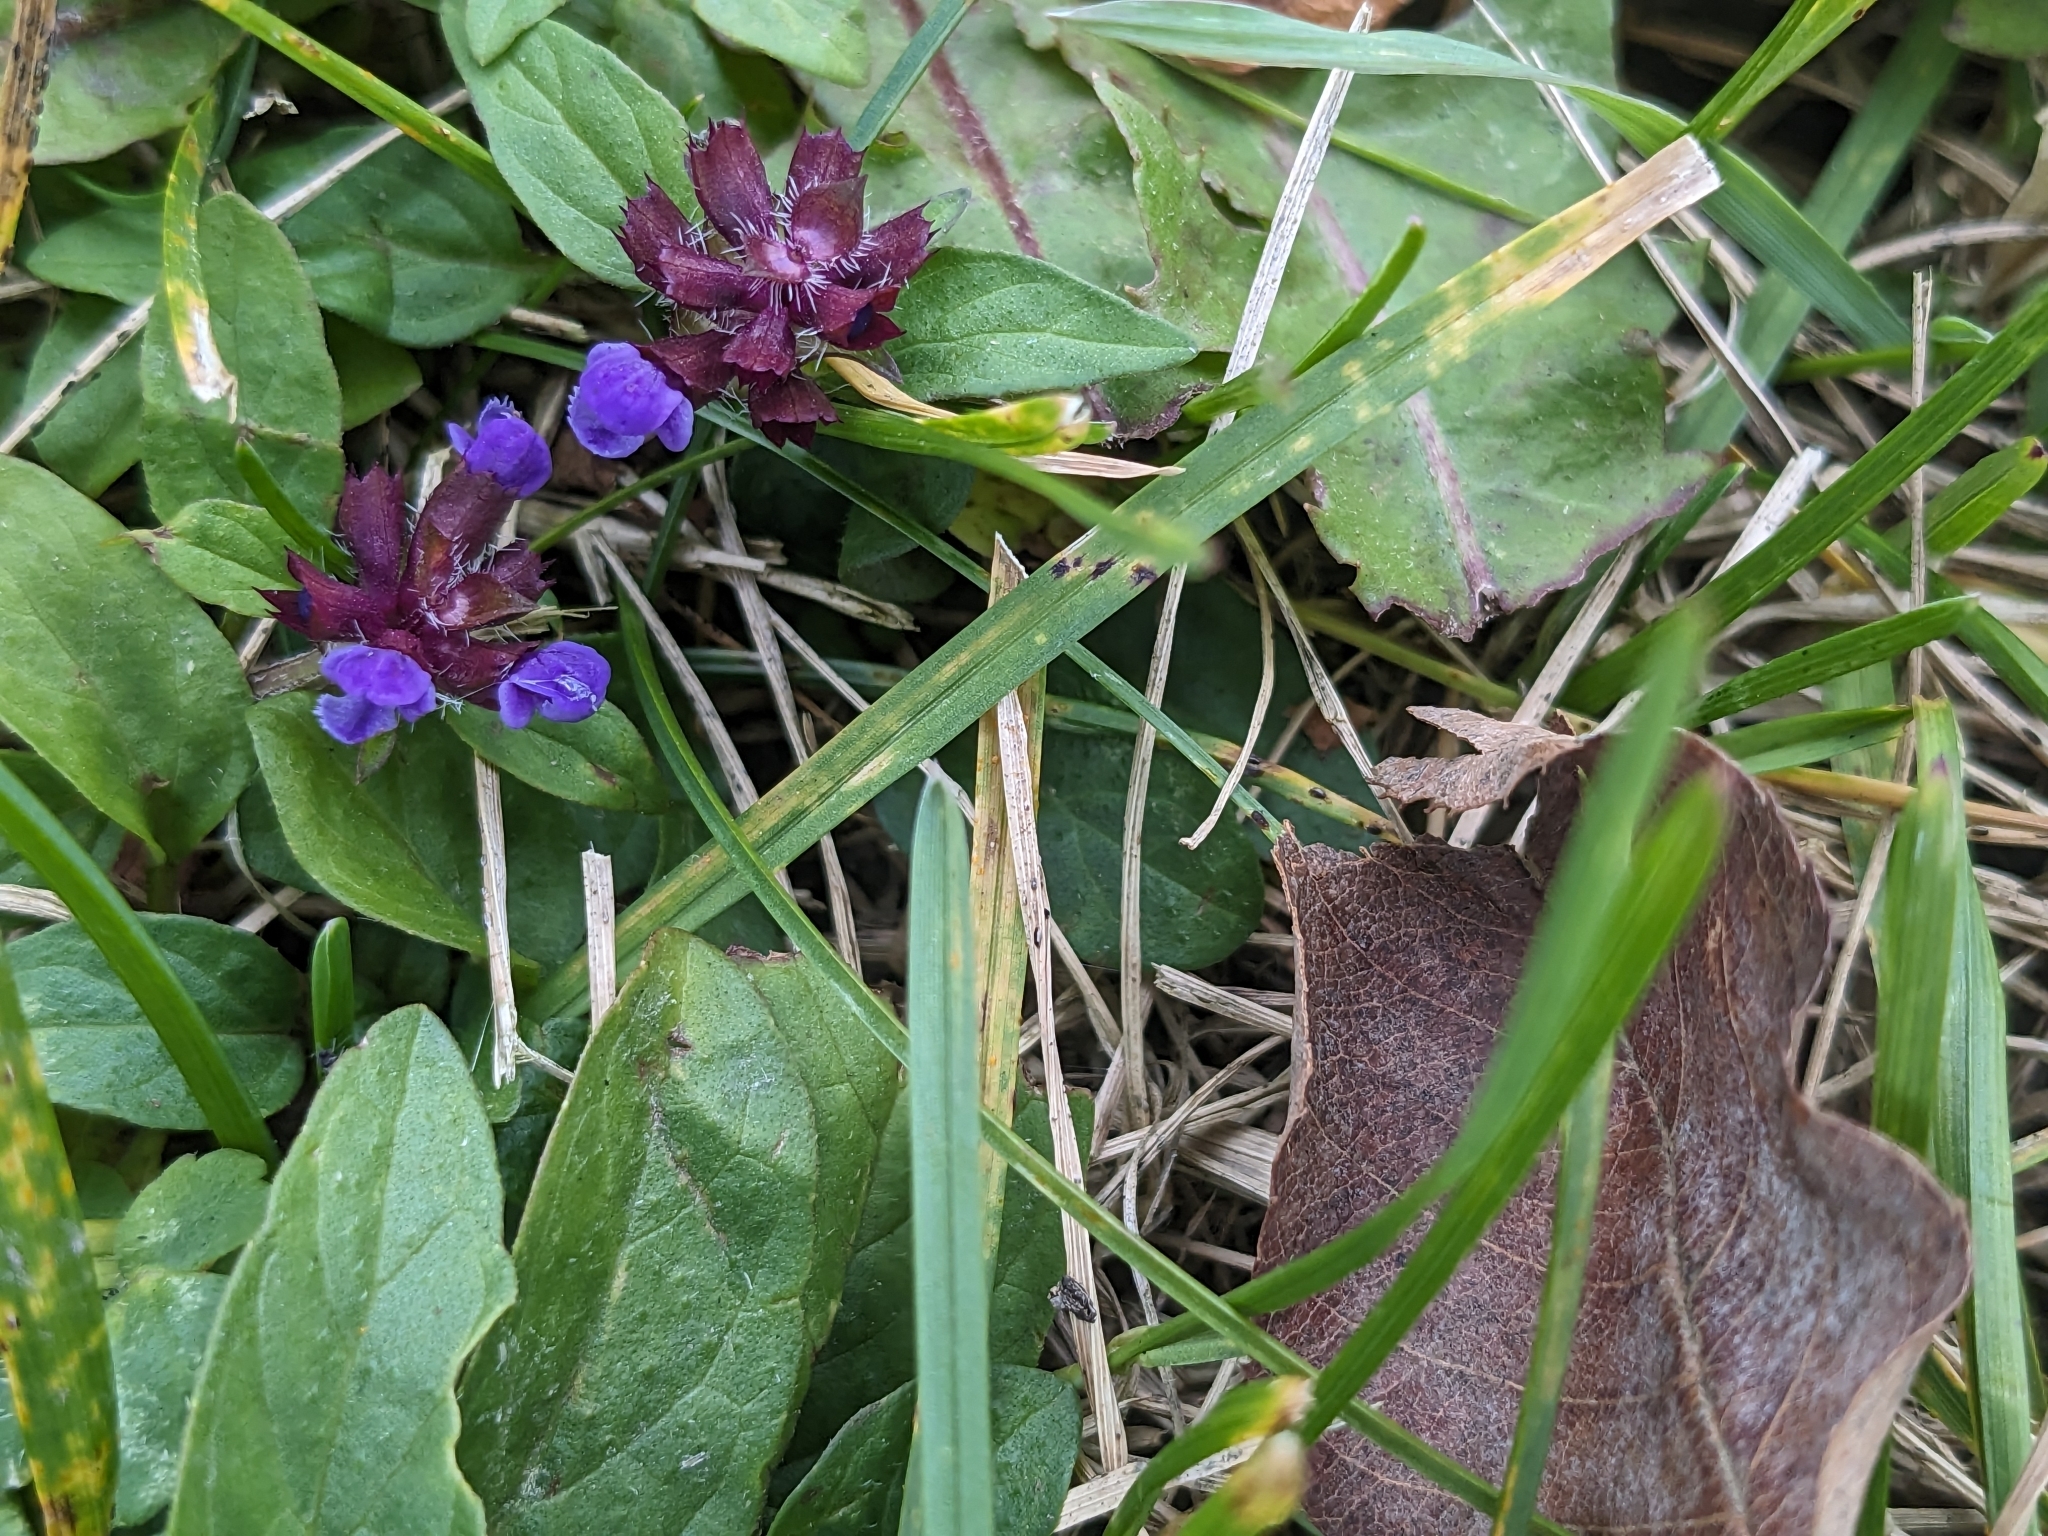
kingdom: Plantae
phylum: Tracheophyta
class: Magnoliopsida
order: Lamiales
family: Lamiaceae
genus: Prunella
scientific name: Prunella vulgaris
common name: Heal-all
